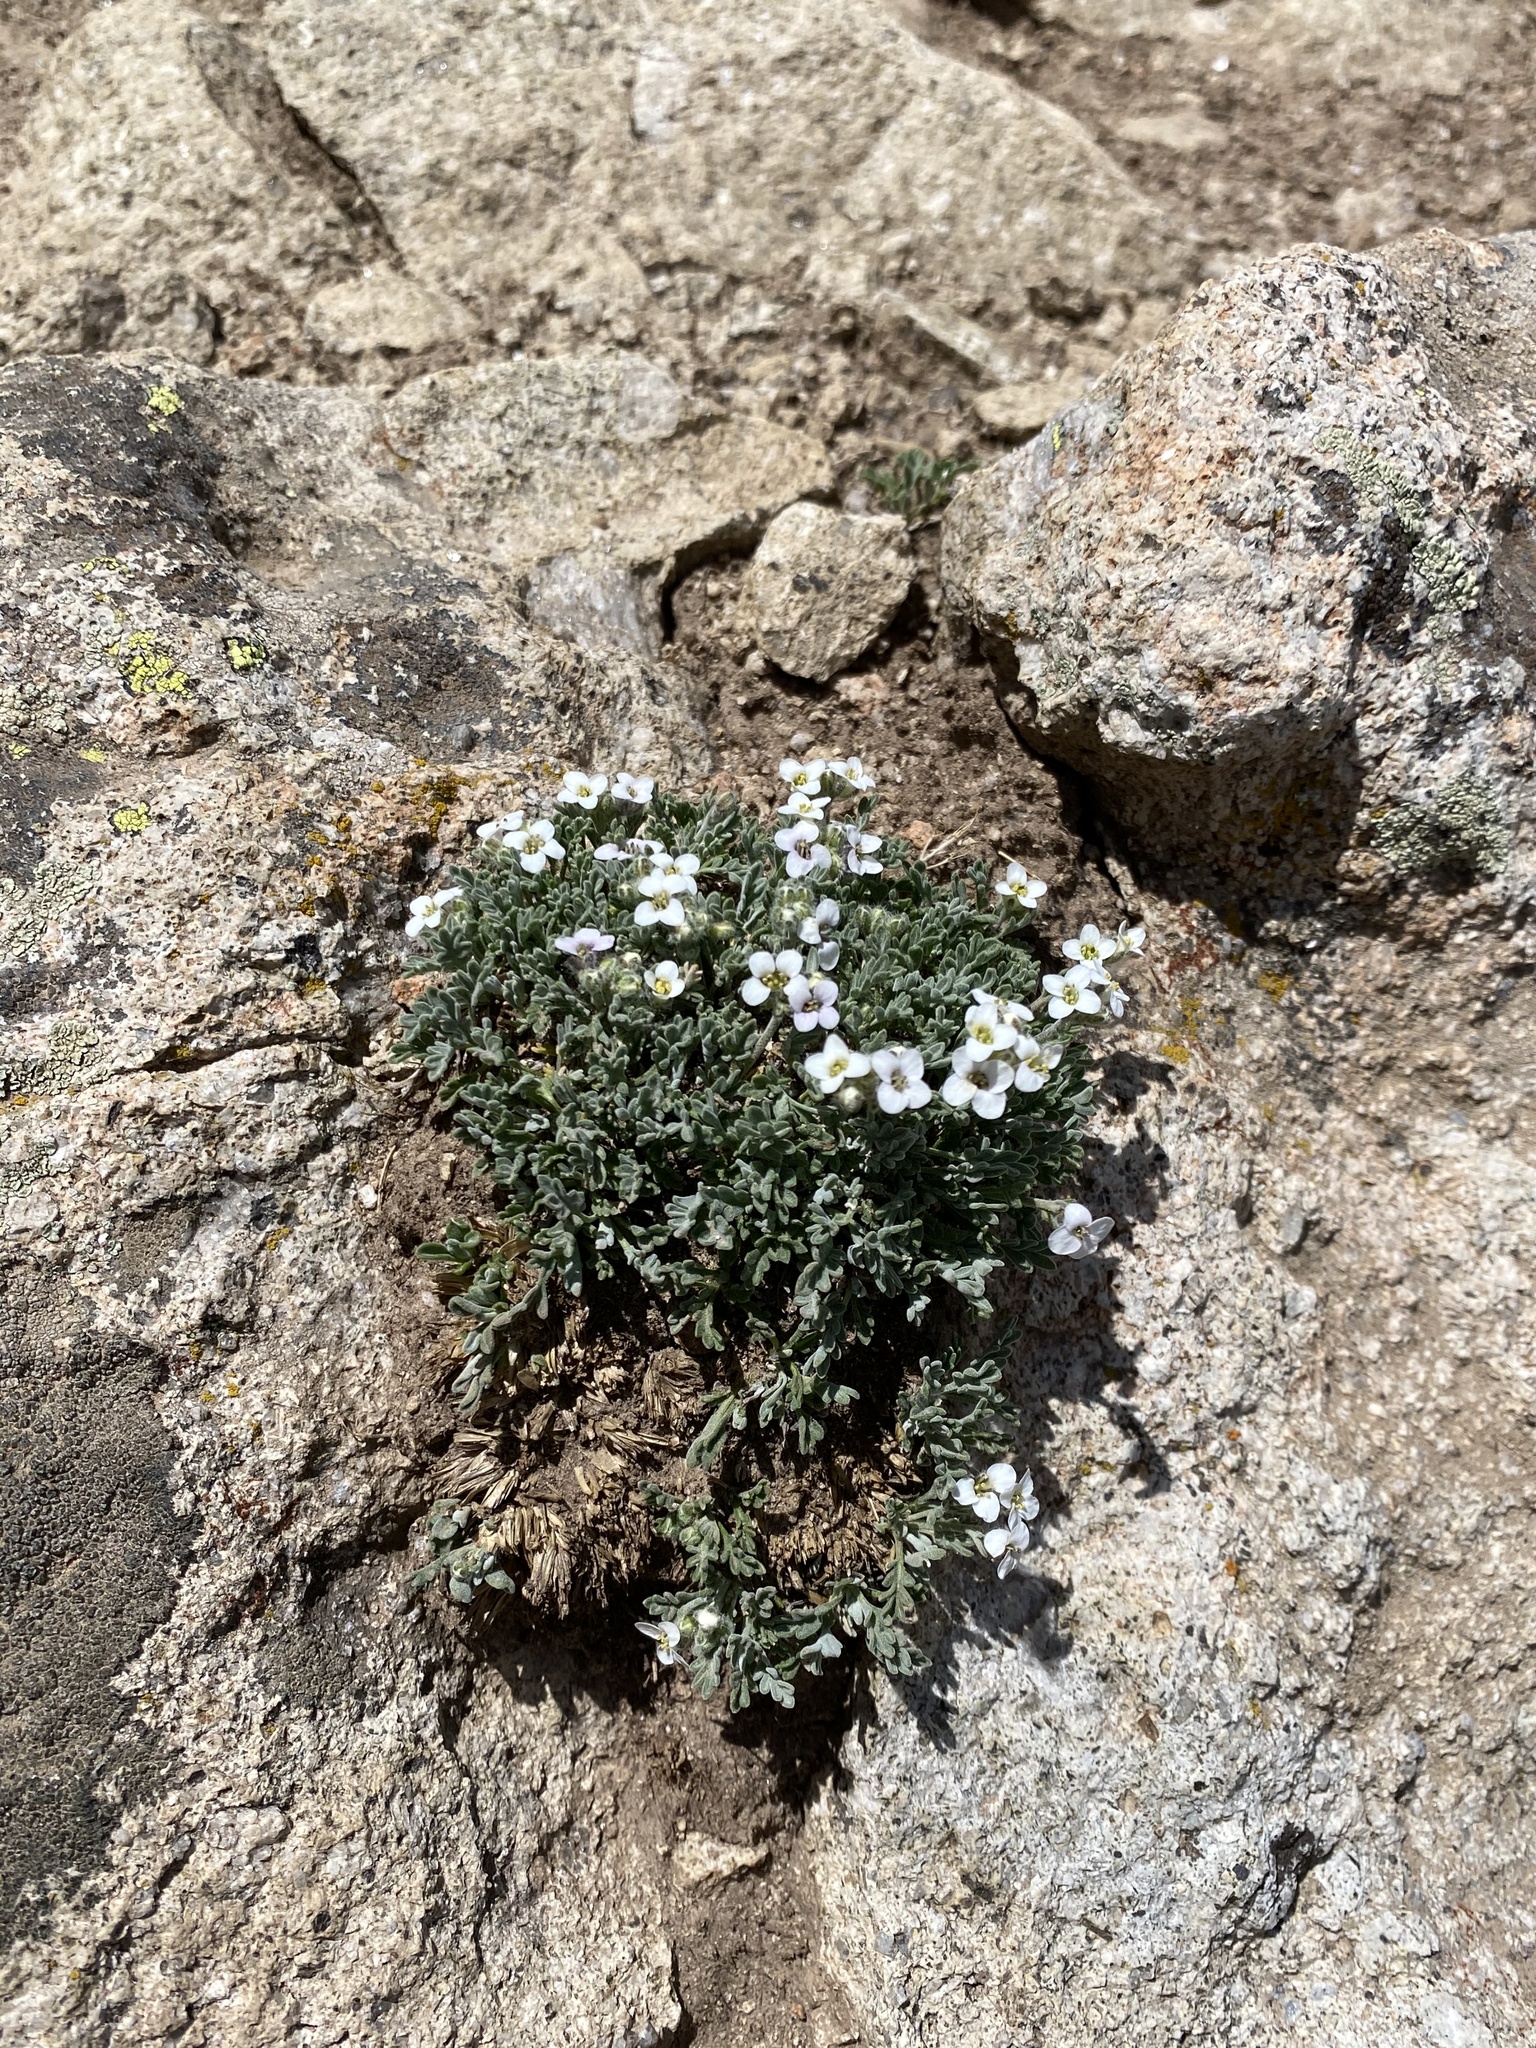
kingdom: Plantae
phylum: Tracheophyta
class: Magnoliopsida
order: Brassicales
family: Brassicaceae
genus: Smelowskia
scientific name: Smelowskia americana
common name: American false candytuft
